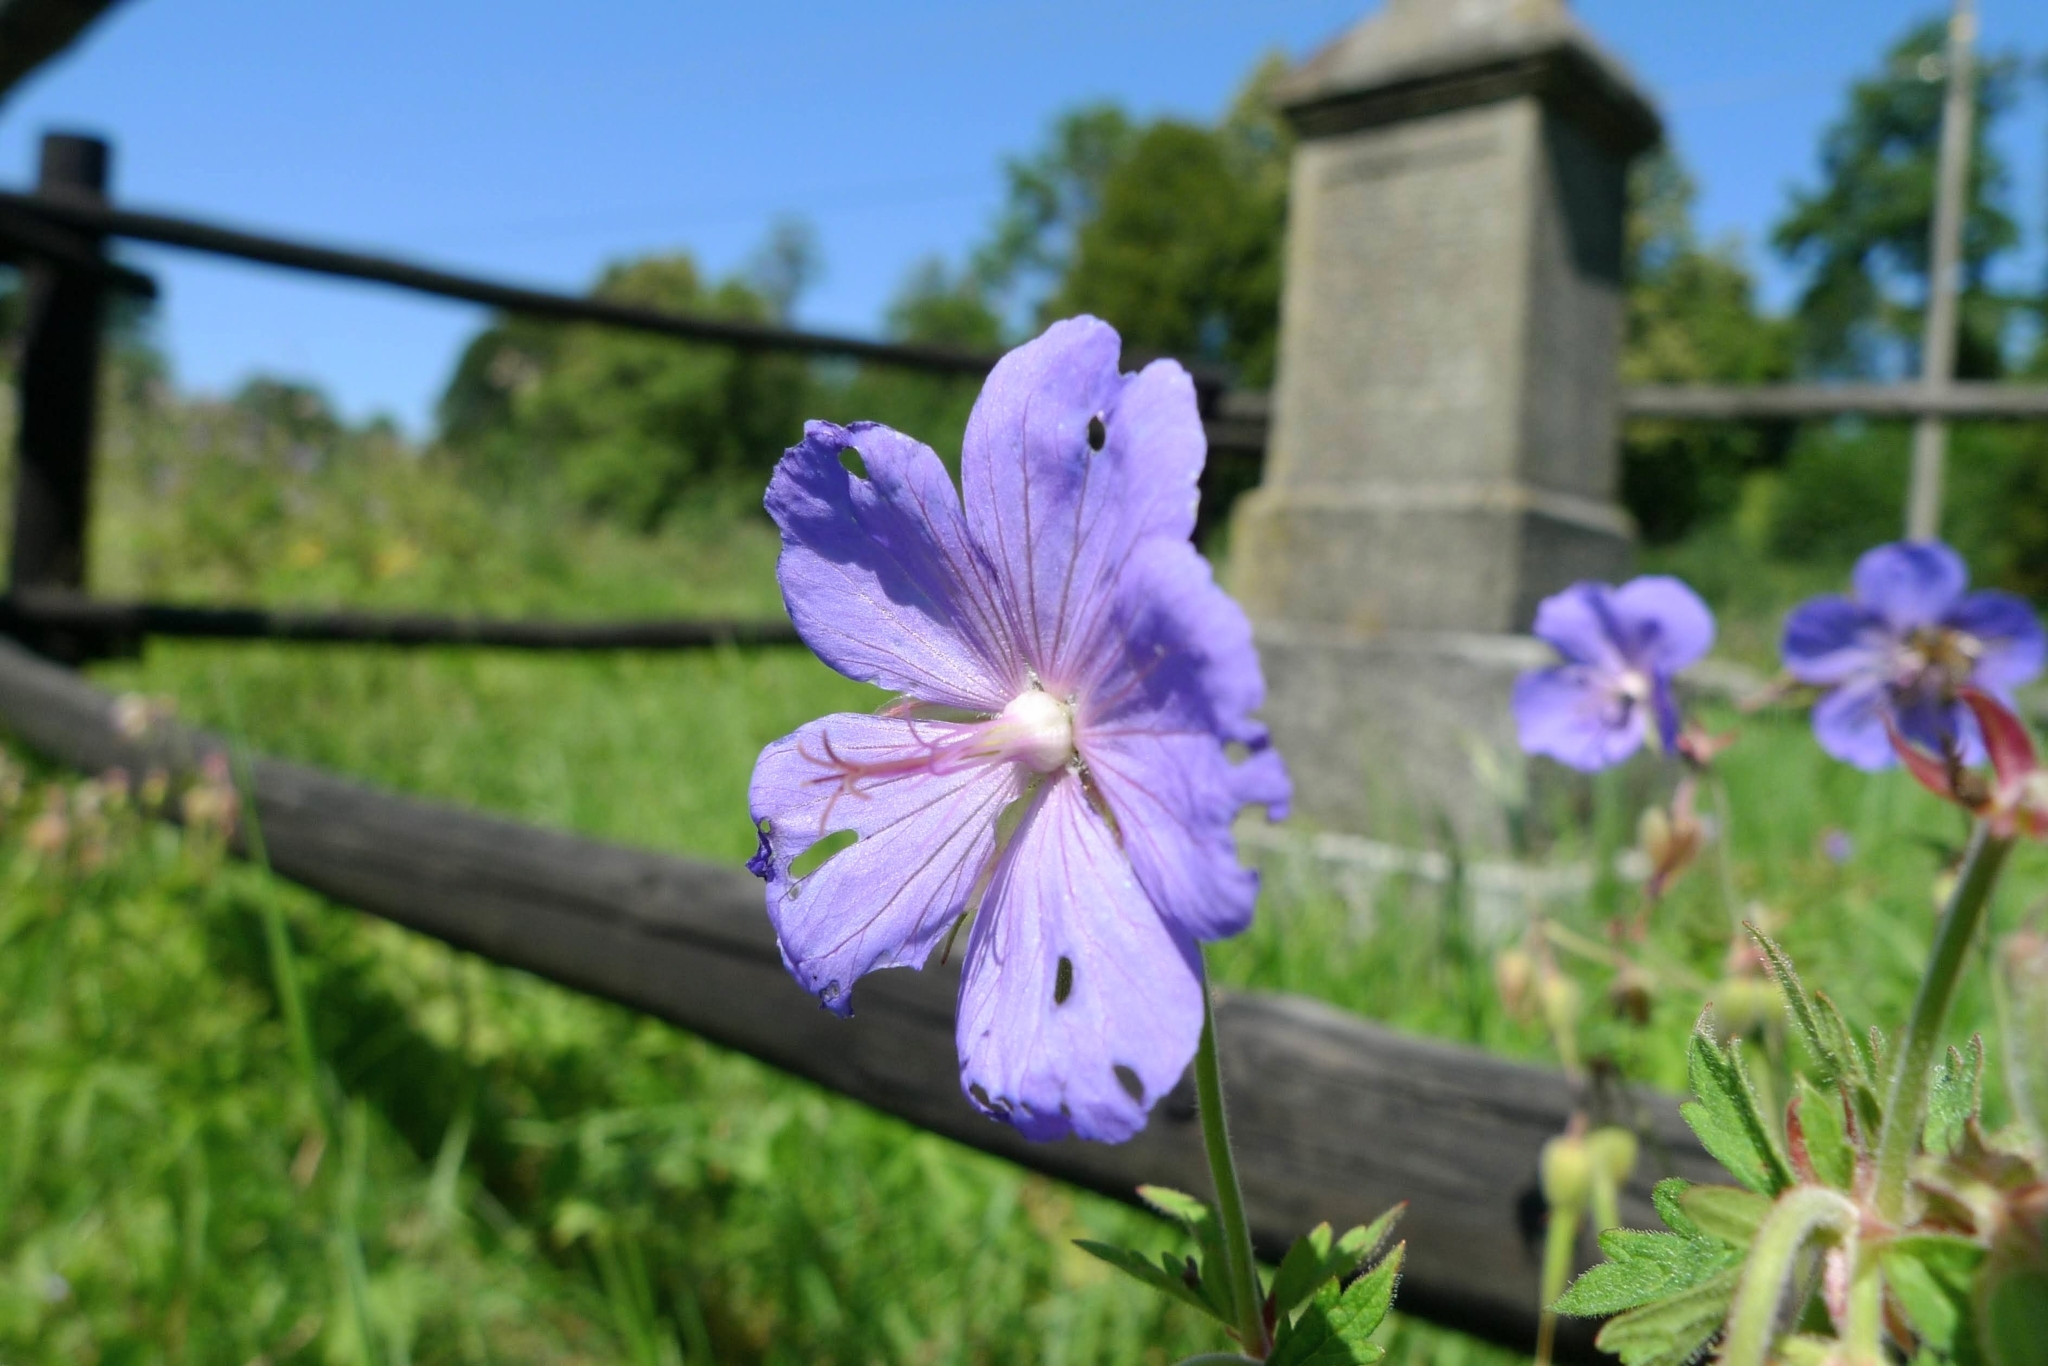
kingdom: Plantae
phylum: Tracheophyta
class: Magnoliopsida
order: Geraniales
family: Geraniaceae
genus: Geranium
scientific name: Geranium pratense
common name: Meadow crane's-bill
